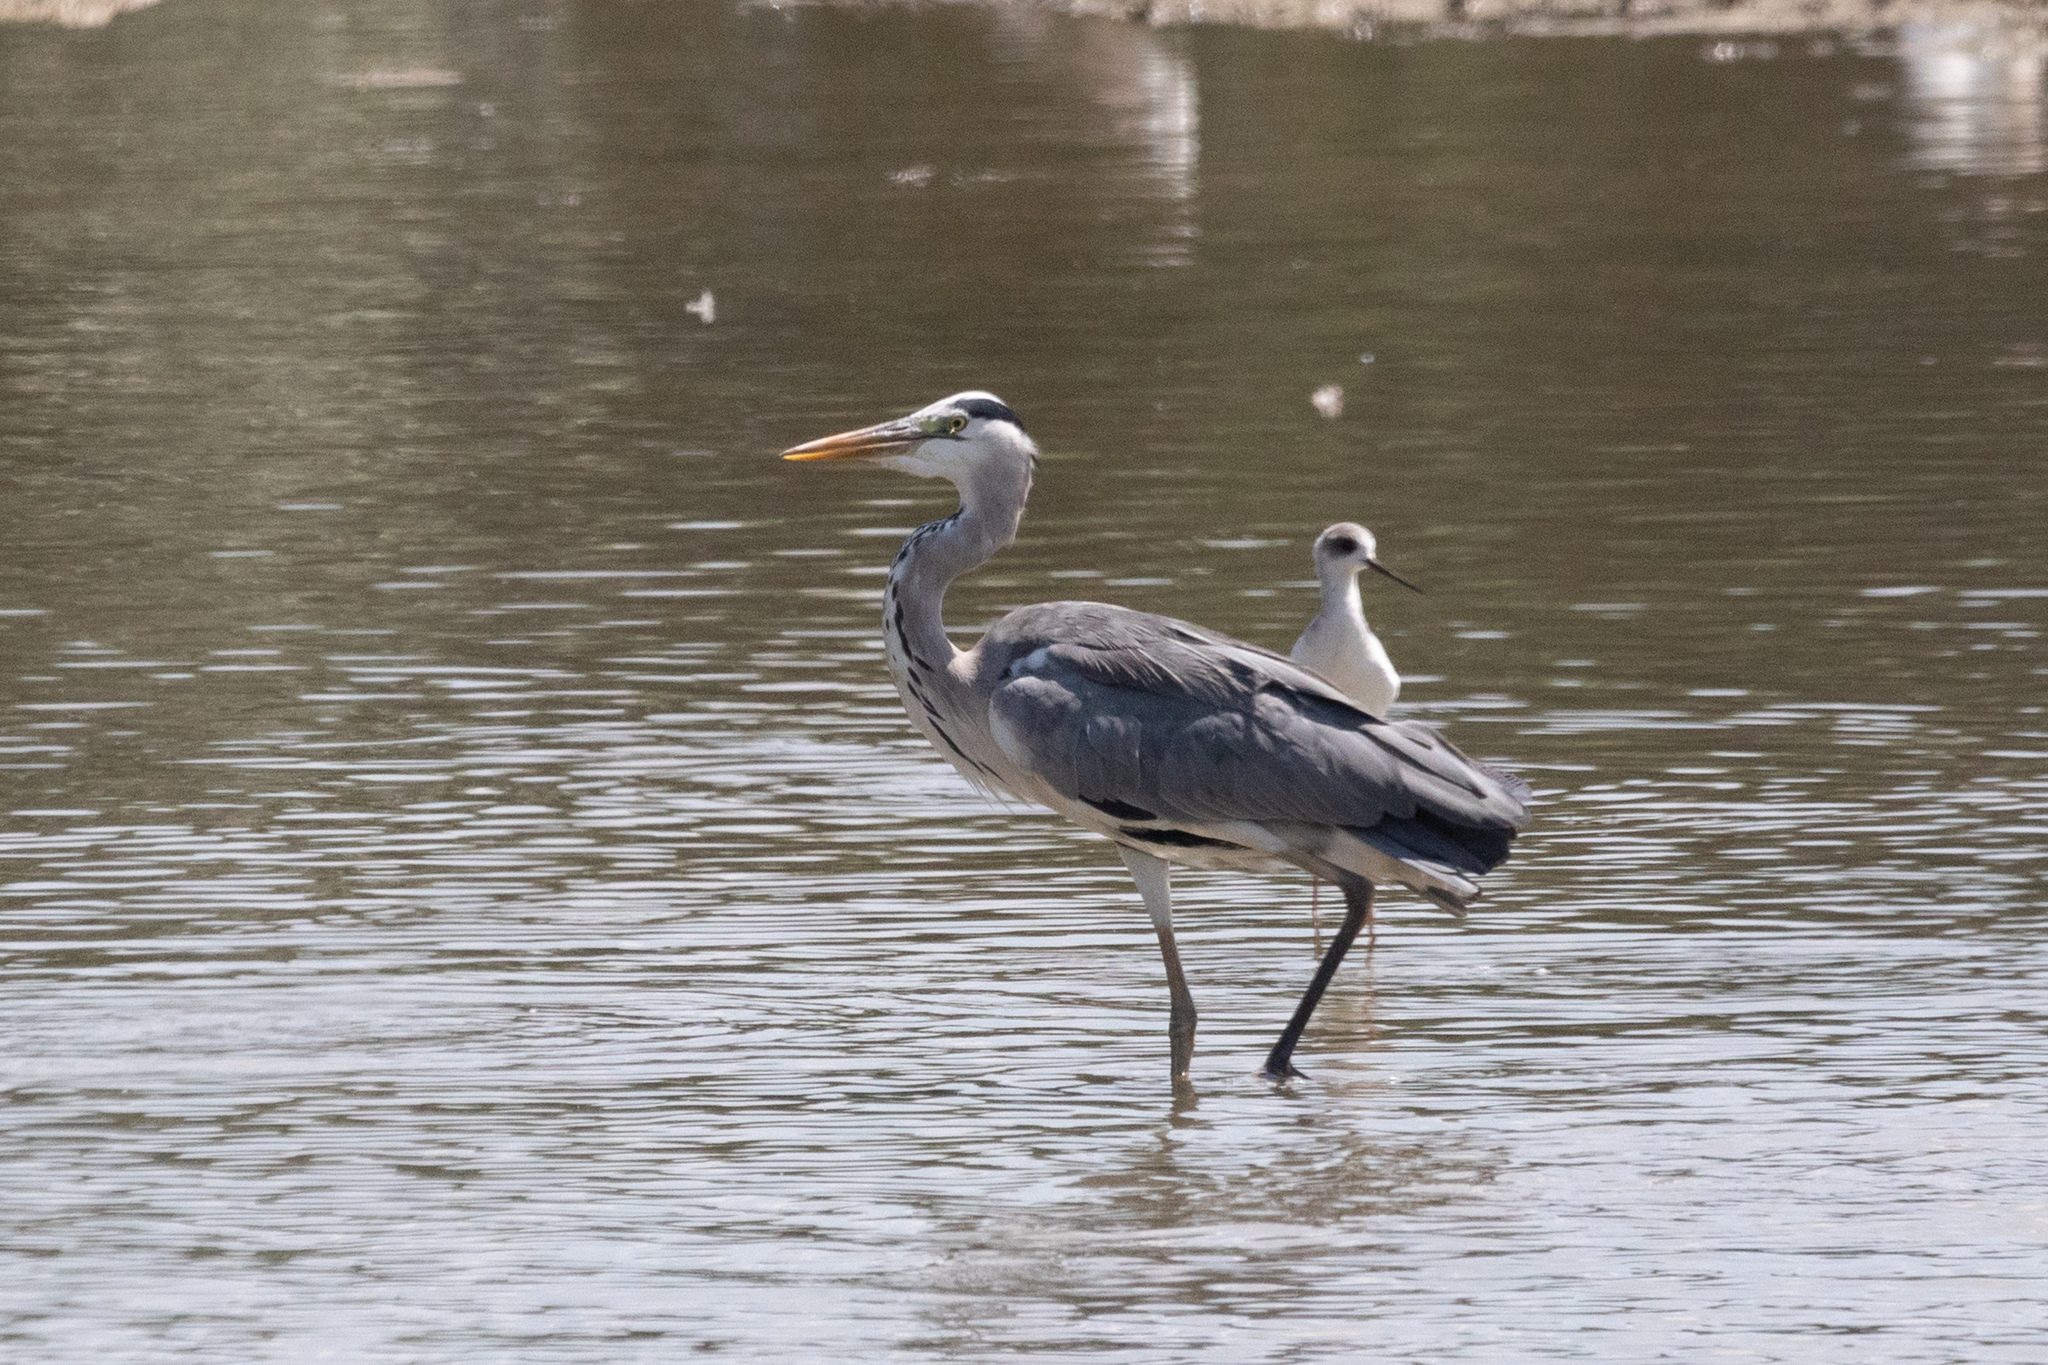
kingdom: Animalia
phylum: Chordata
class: Aves
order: Pelecaniformes
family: Ardeidae
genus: Ardea
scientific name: Ardea cinerea
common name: Grey heron
